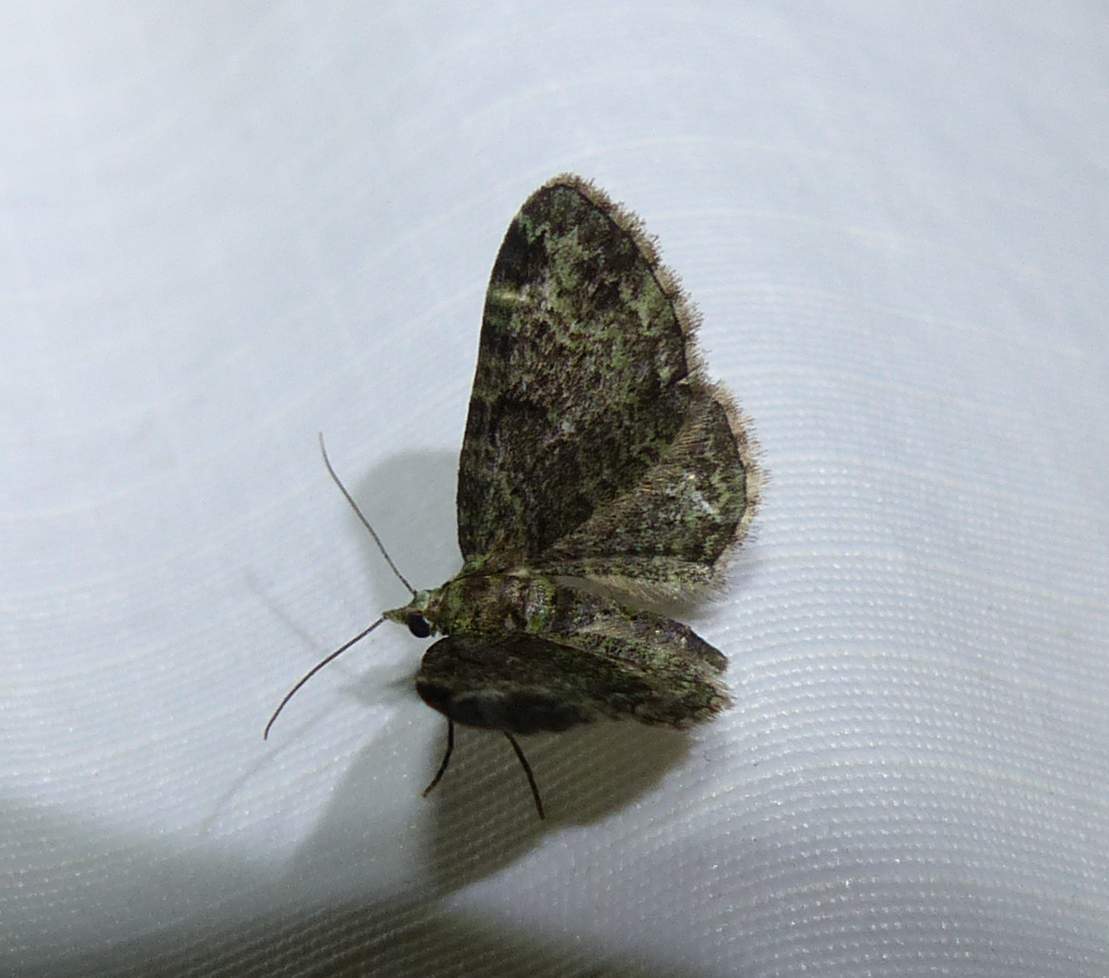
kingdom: Animalia
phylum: Arthropoda
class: Insecta
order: Lepidoptera
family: Geometridae
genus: Pasiphila
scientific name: Pasiphila rectangulata
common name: Green pug
